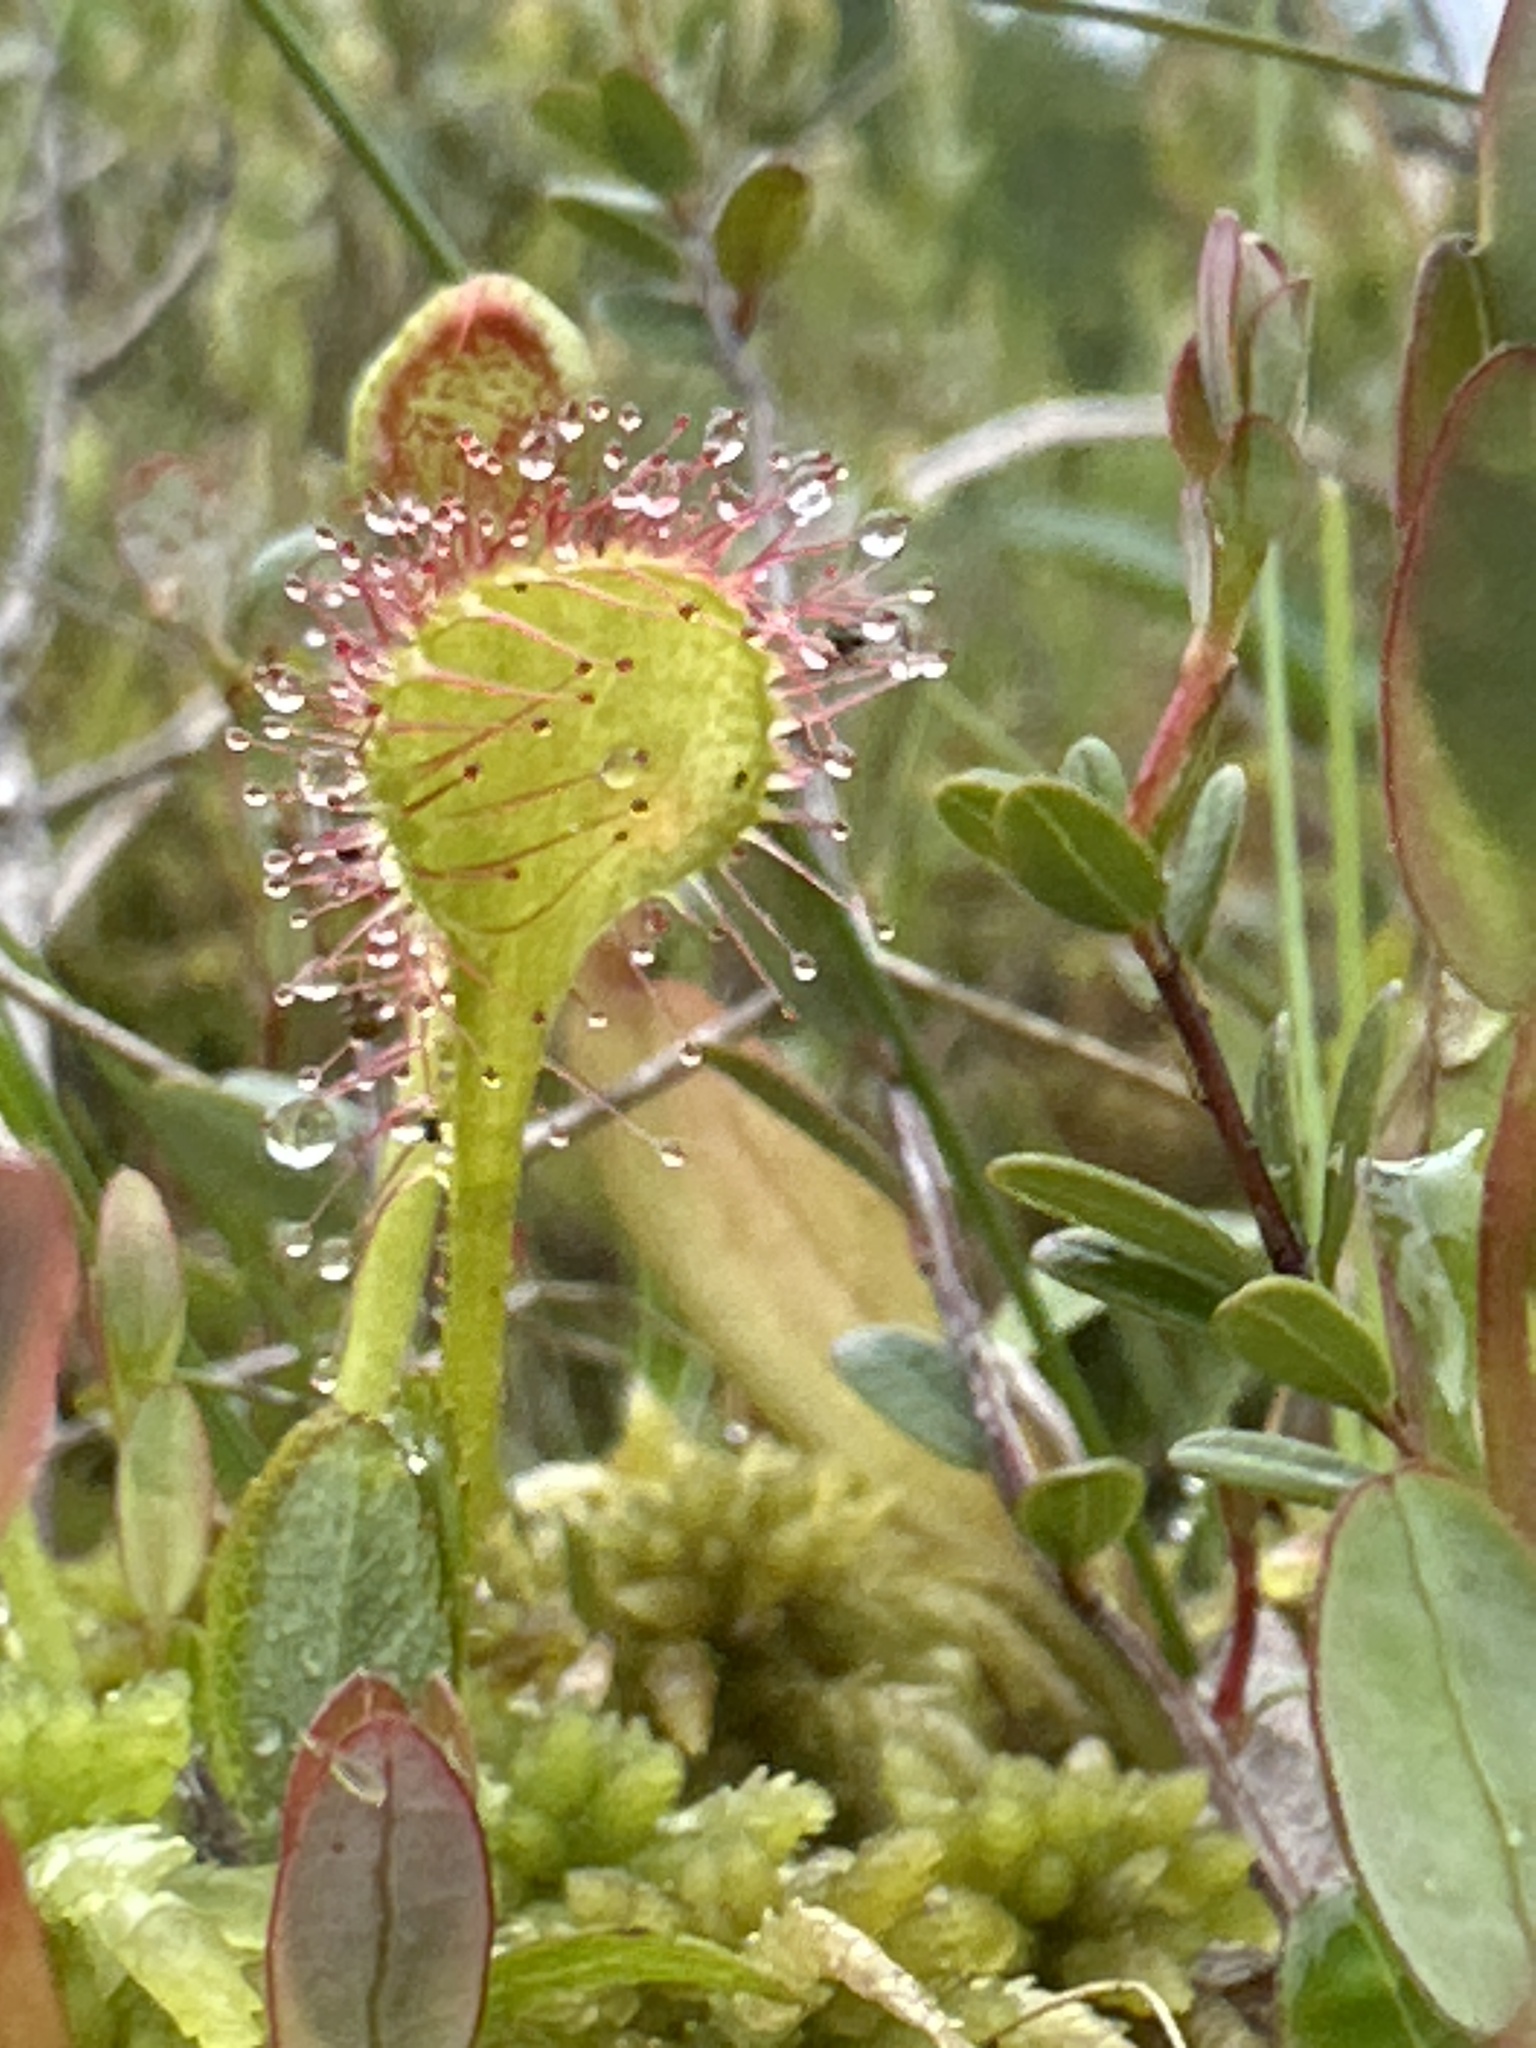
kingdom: Plantae
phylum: Tracheophyta
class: Magnoliopsida
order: Caryophyllales
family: Droseraceae
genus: Drosera
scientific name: Drosera rotundifolia
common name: Round-leaved sundew
